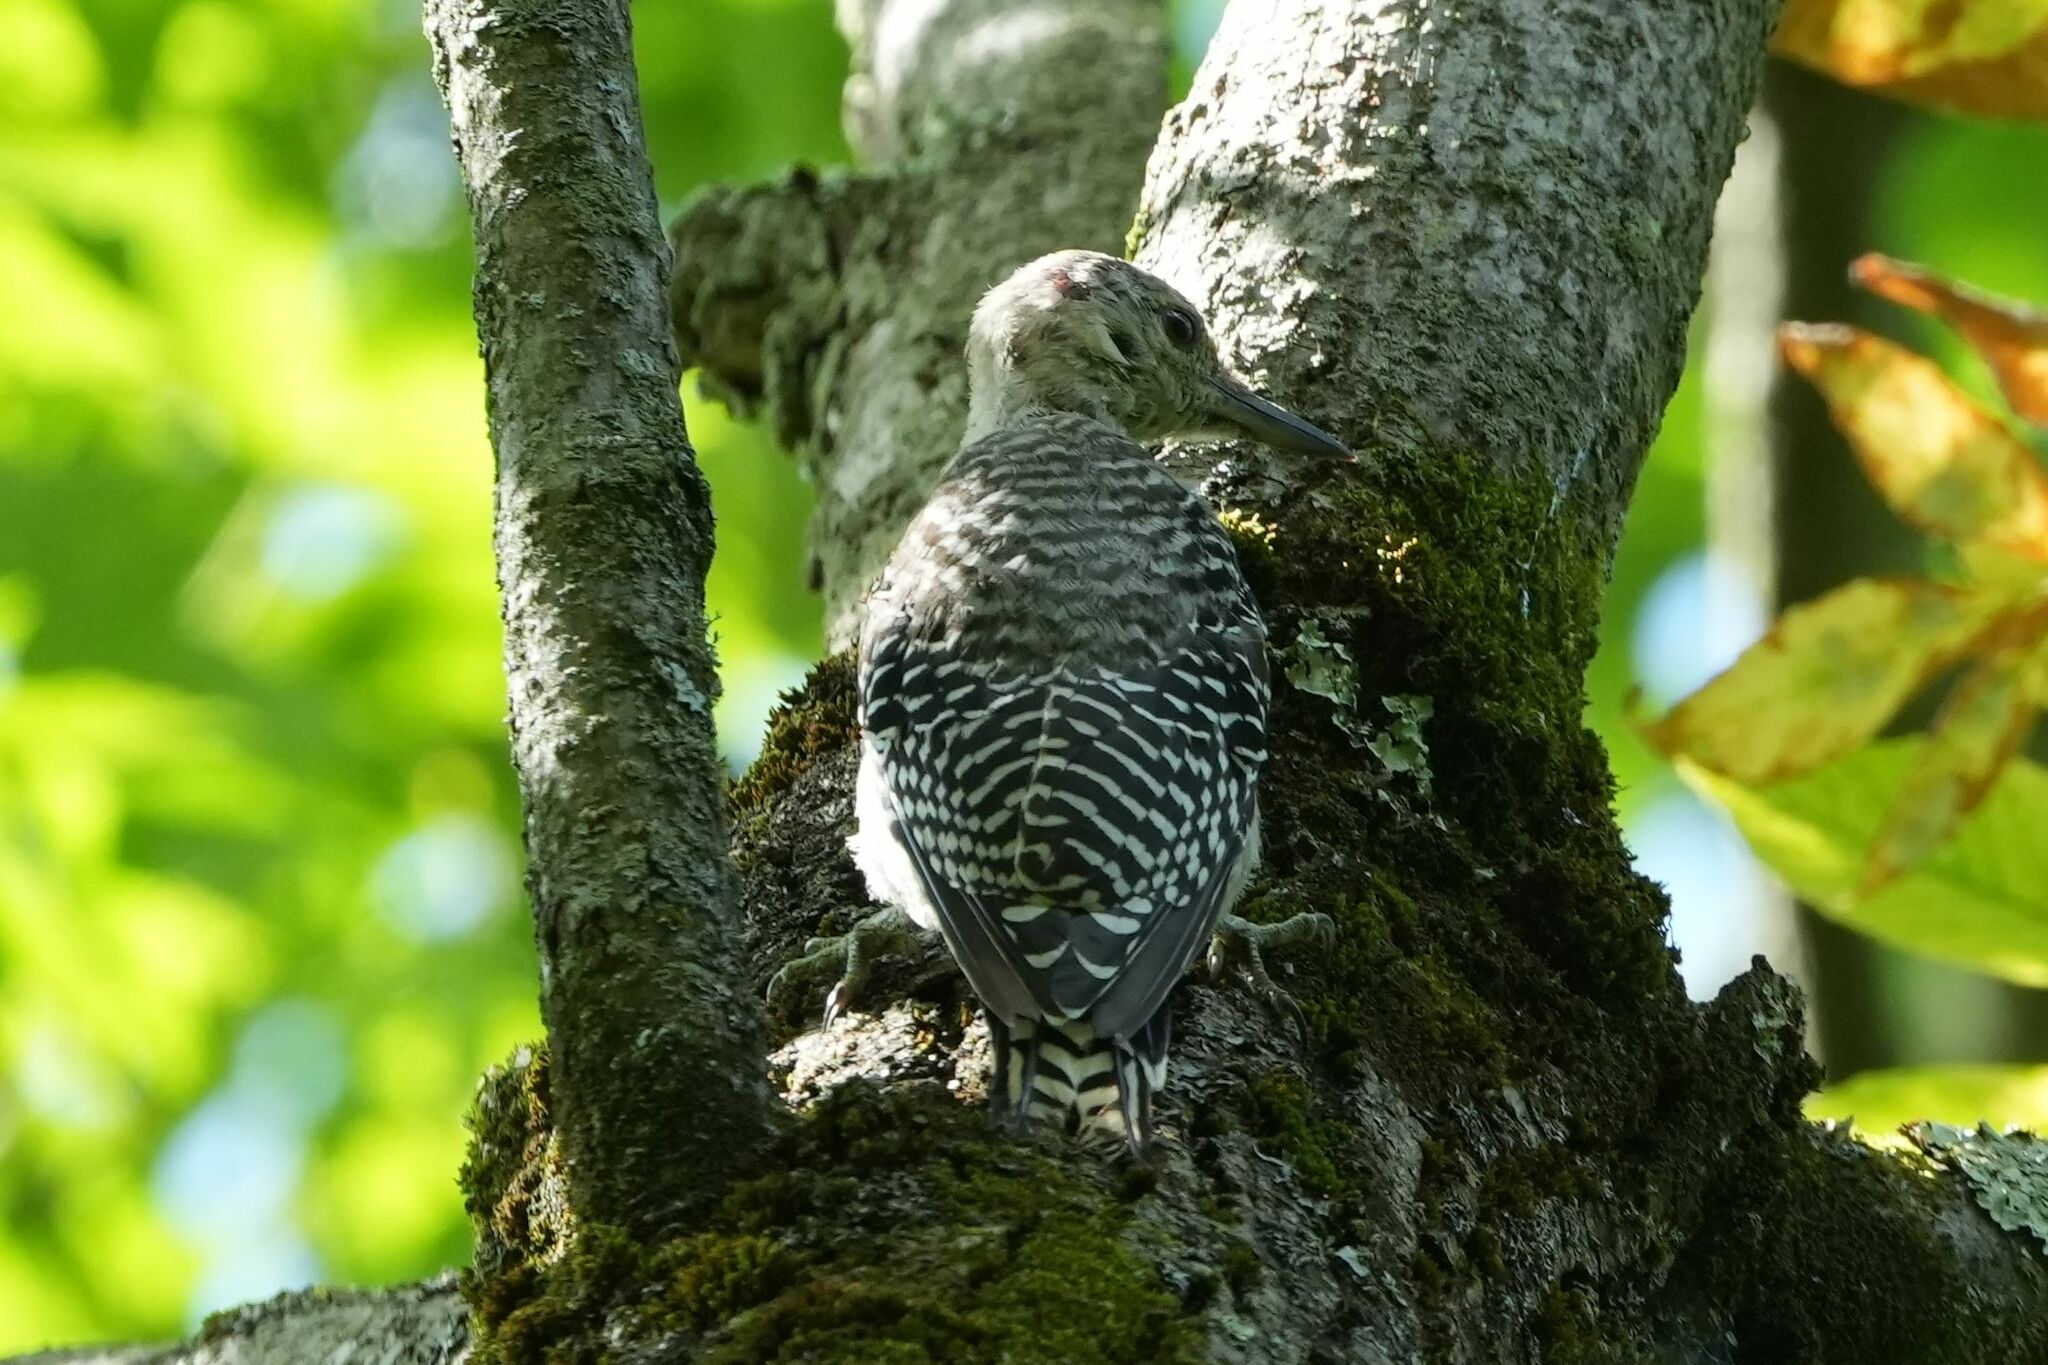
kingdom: Animalia
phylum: Chordata
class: Aves
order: Piciformes
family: Picidae
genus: Melanerpes
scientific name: Melanerpes carolinus
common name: Red-bellied woodpecker
